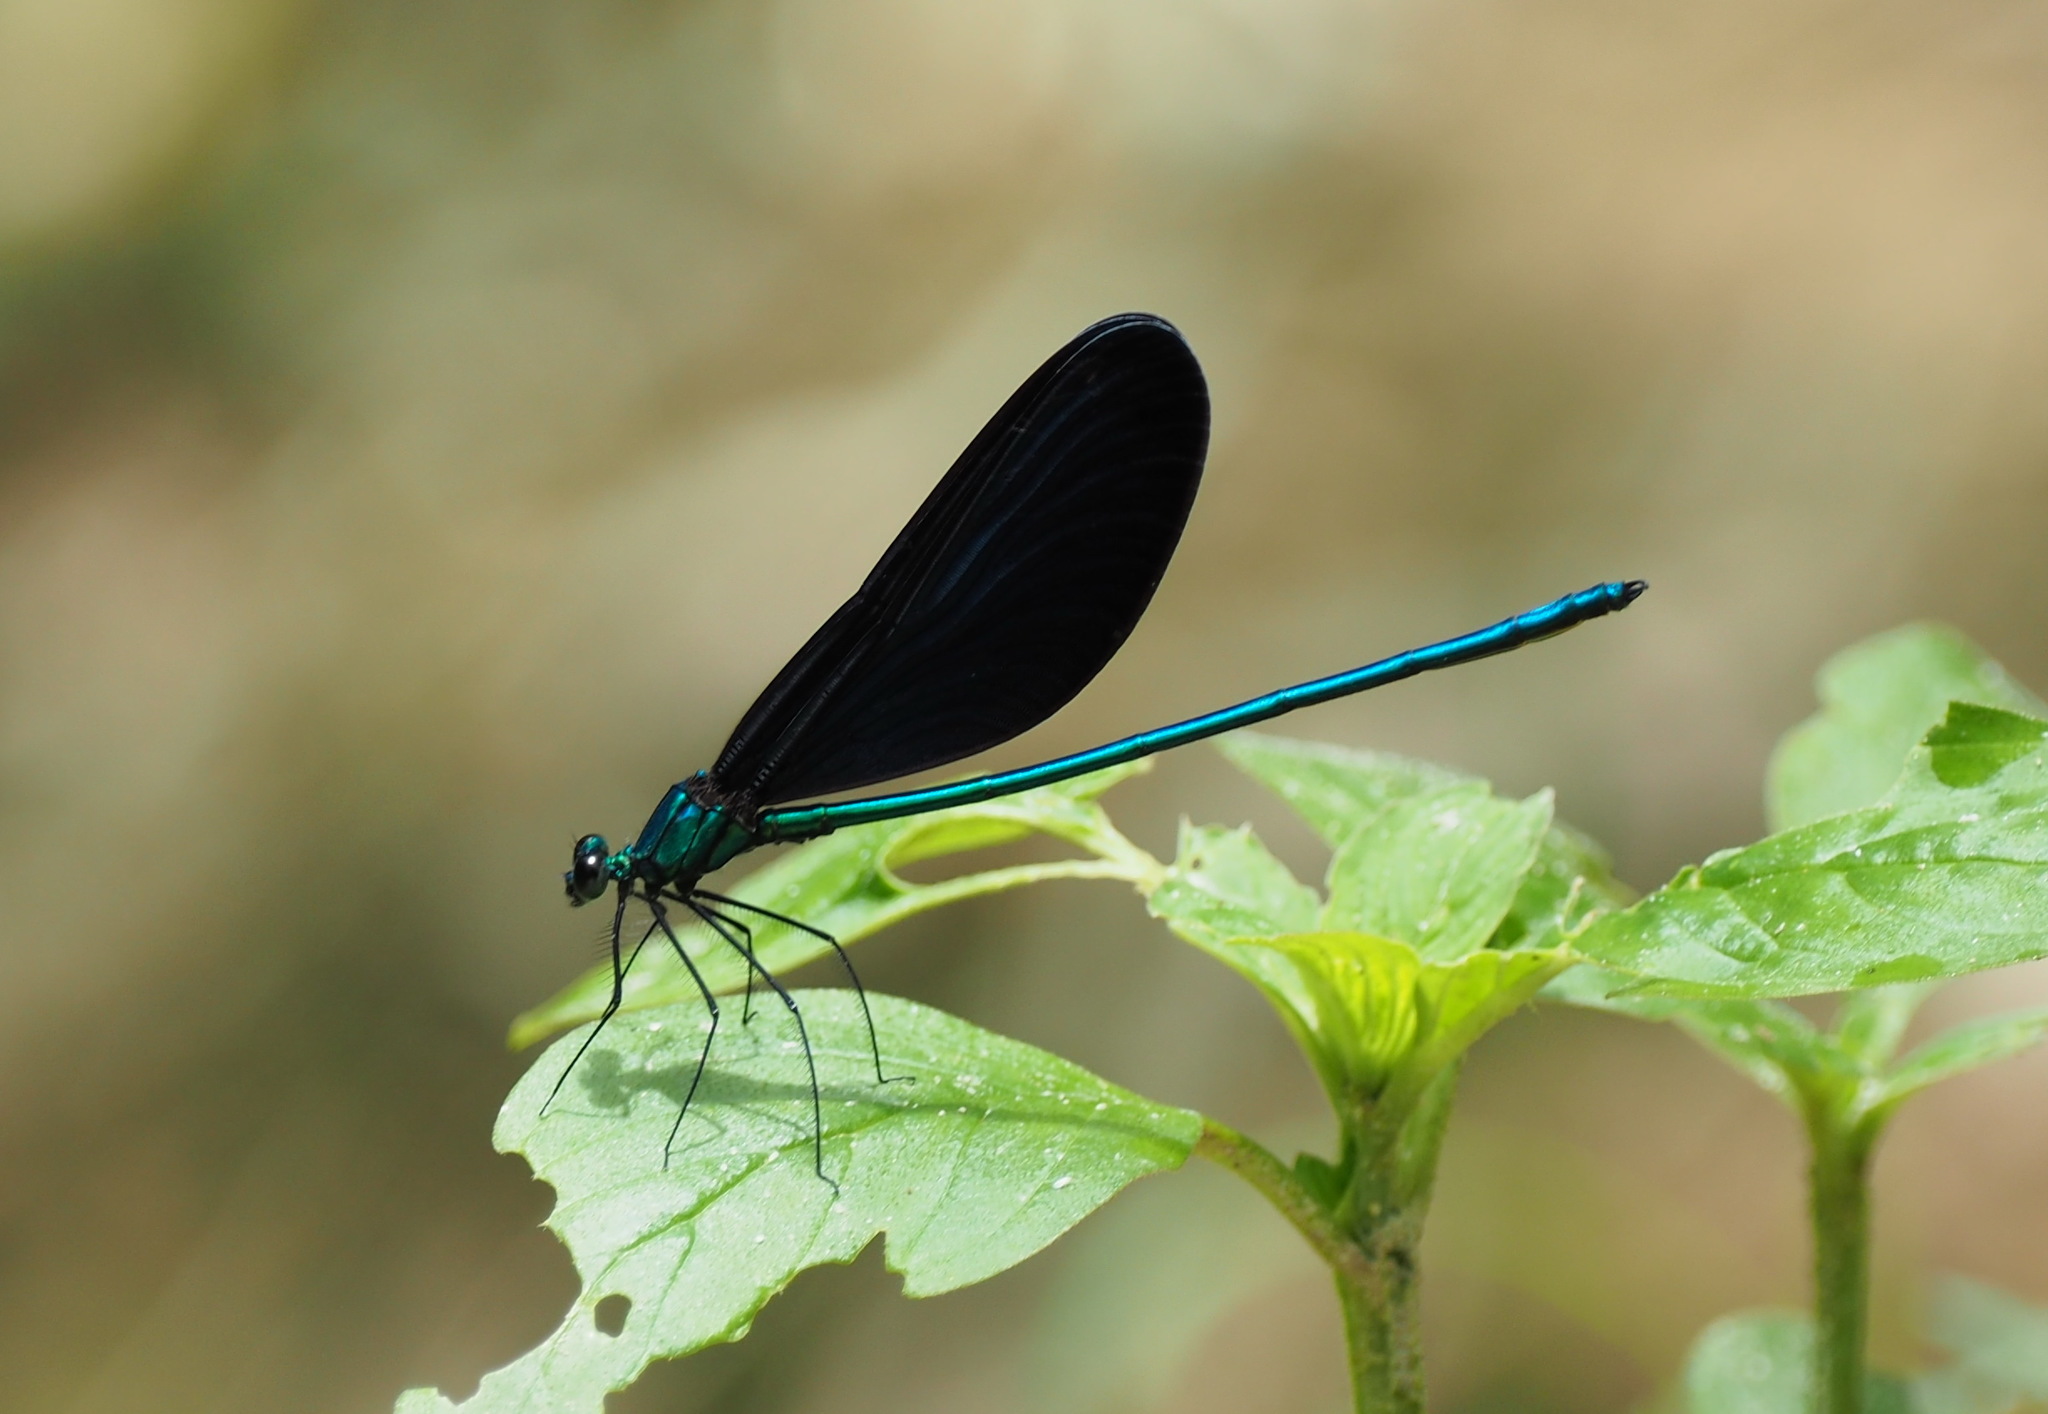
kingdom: Animalia
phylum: Arthropoda
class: Insecta
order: Odonata
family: Calopterygidae
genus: Matrona
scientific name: Matrona cyanoptera
